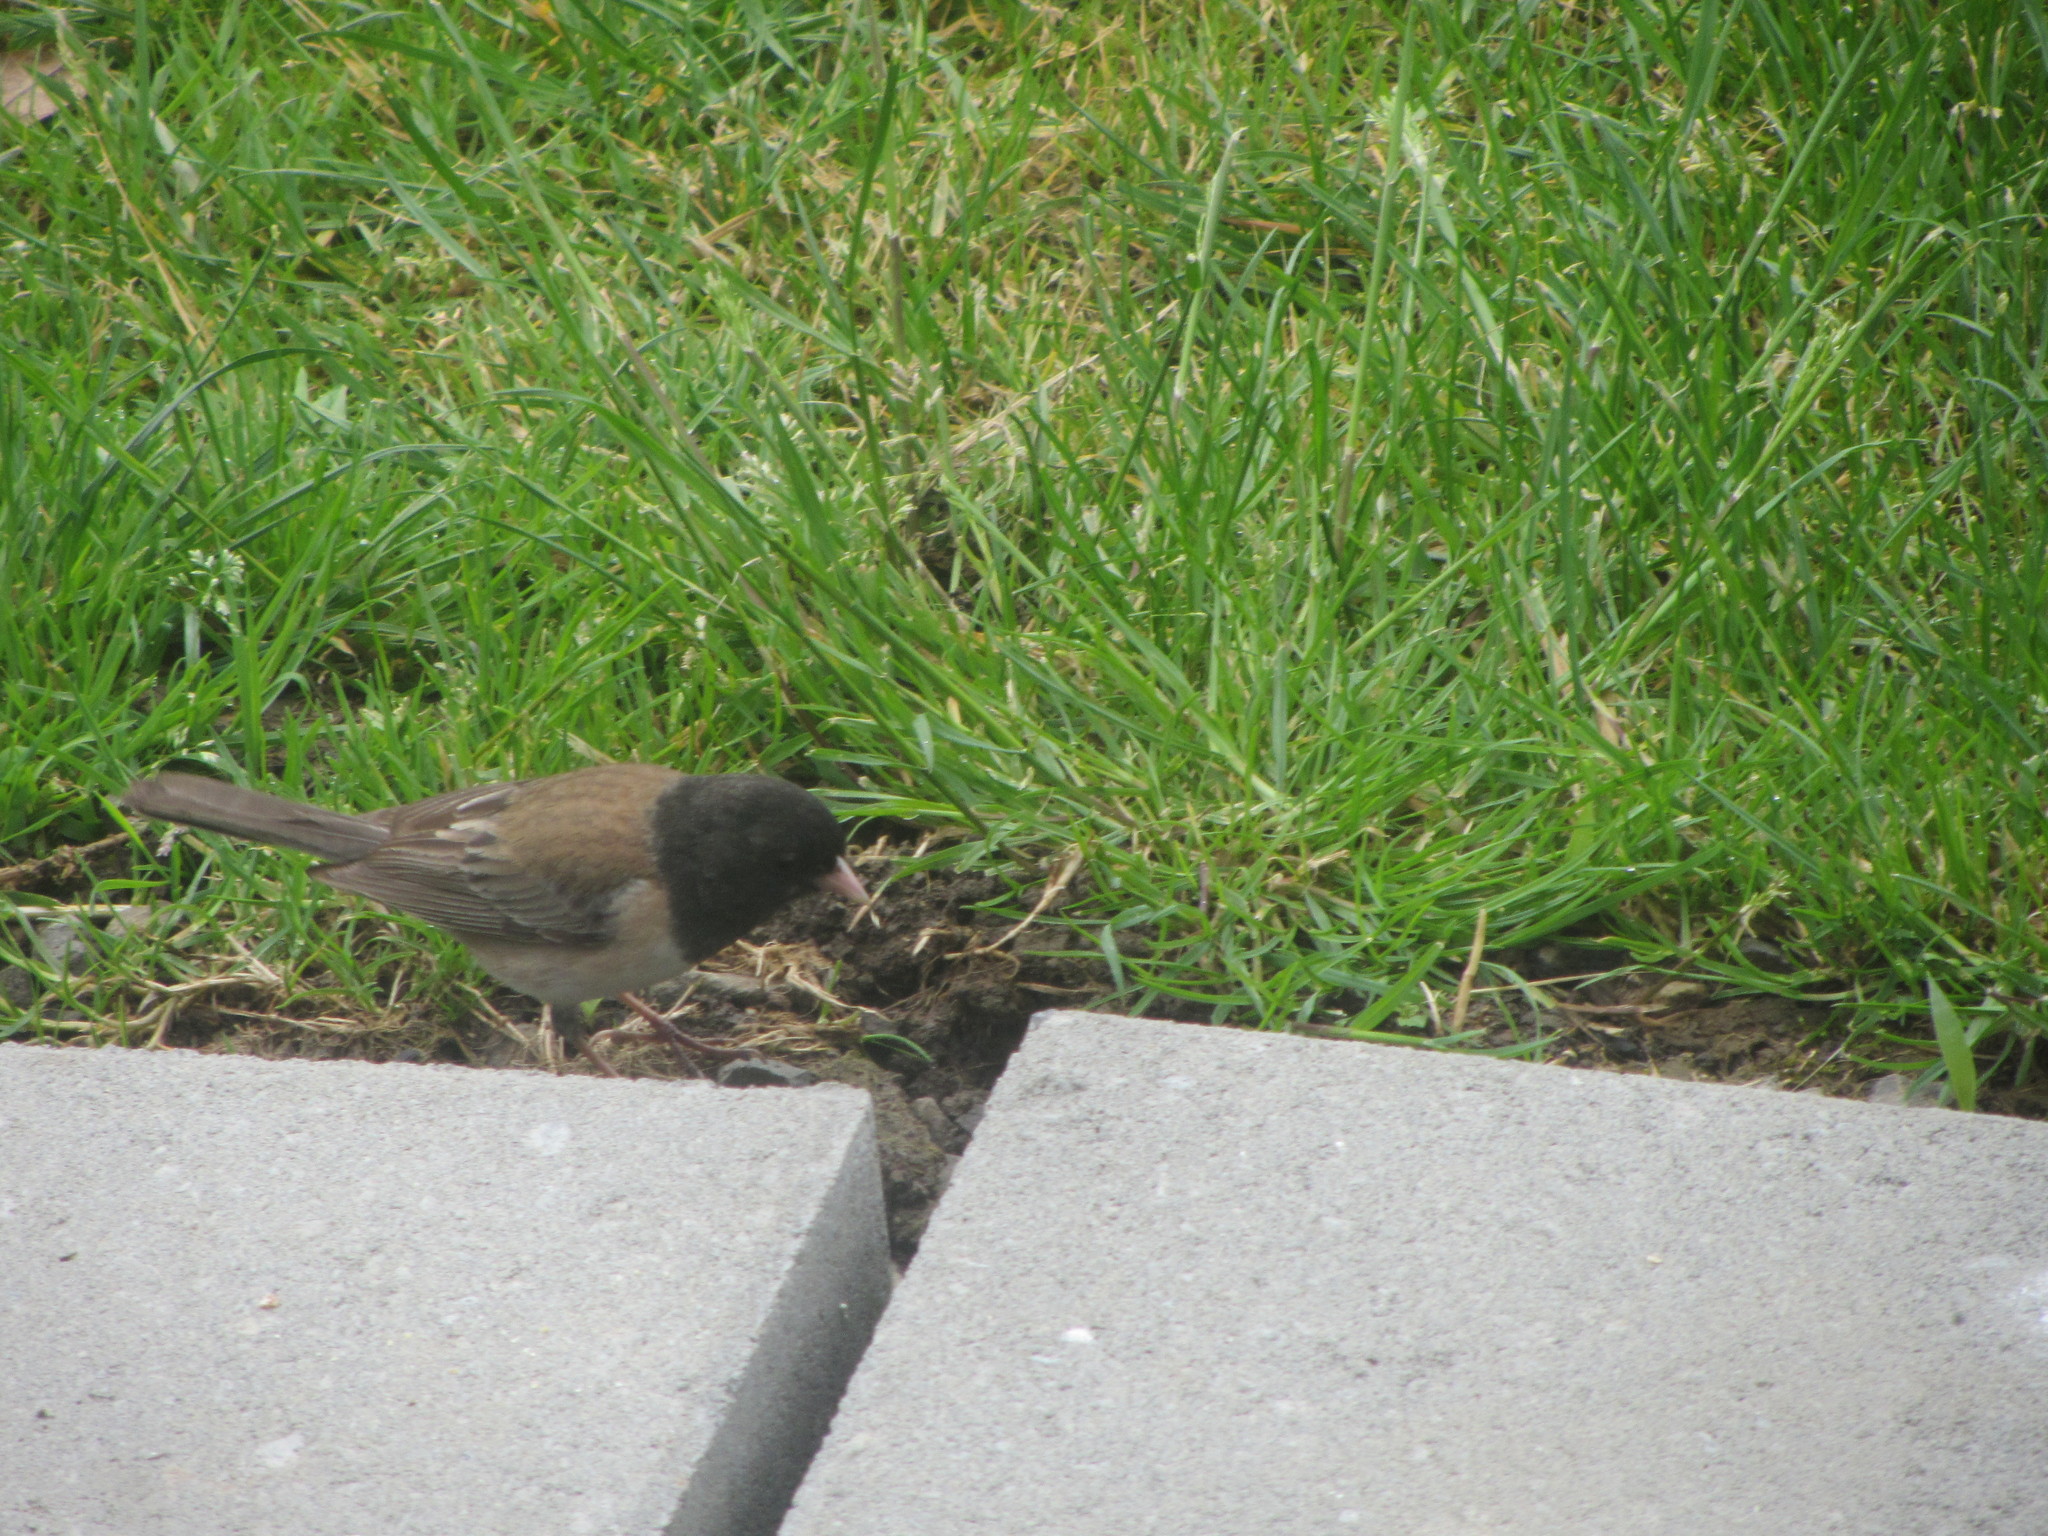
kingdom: Animalia
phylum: Chordata
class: Aves
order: Passeriformes
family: Passerellidae
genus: Junco
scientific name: Junco hyemalis
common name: Dark-eyed junco
